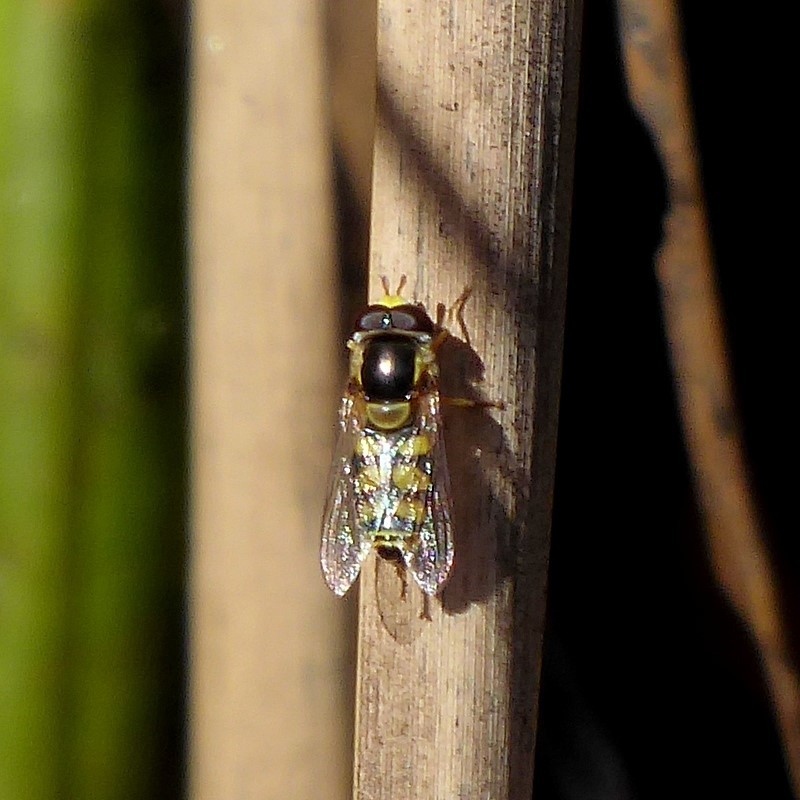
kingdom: Animalia
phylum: Arthropoda
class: Insecta
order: Diptera
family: Syrphidae
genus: Simosyrphus
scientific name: Simosyrphus grandicornis
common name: Hoverfly
